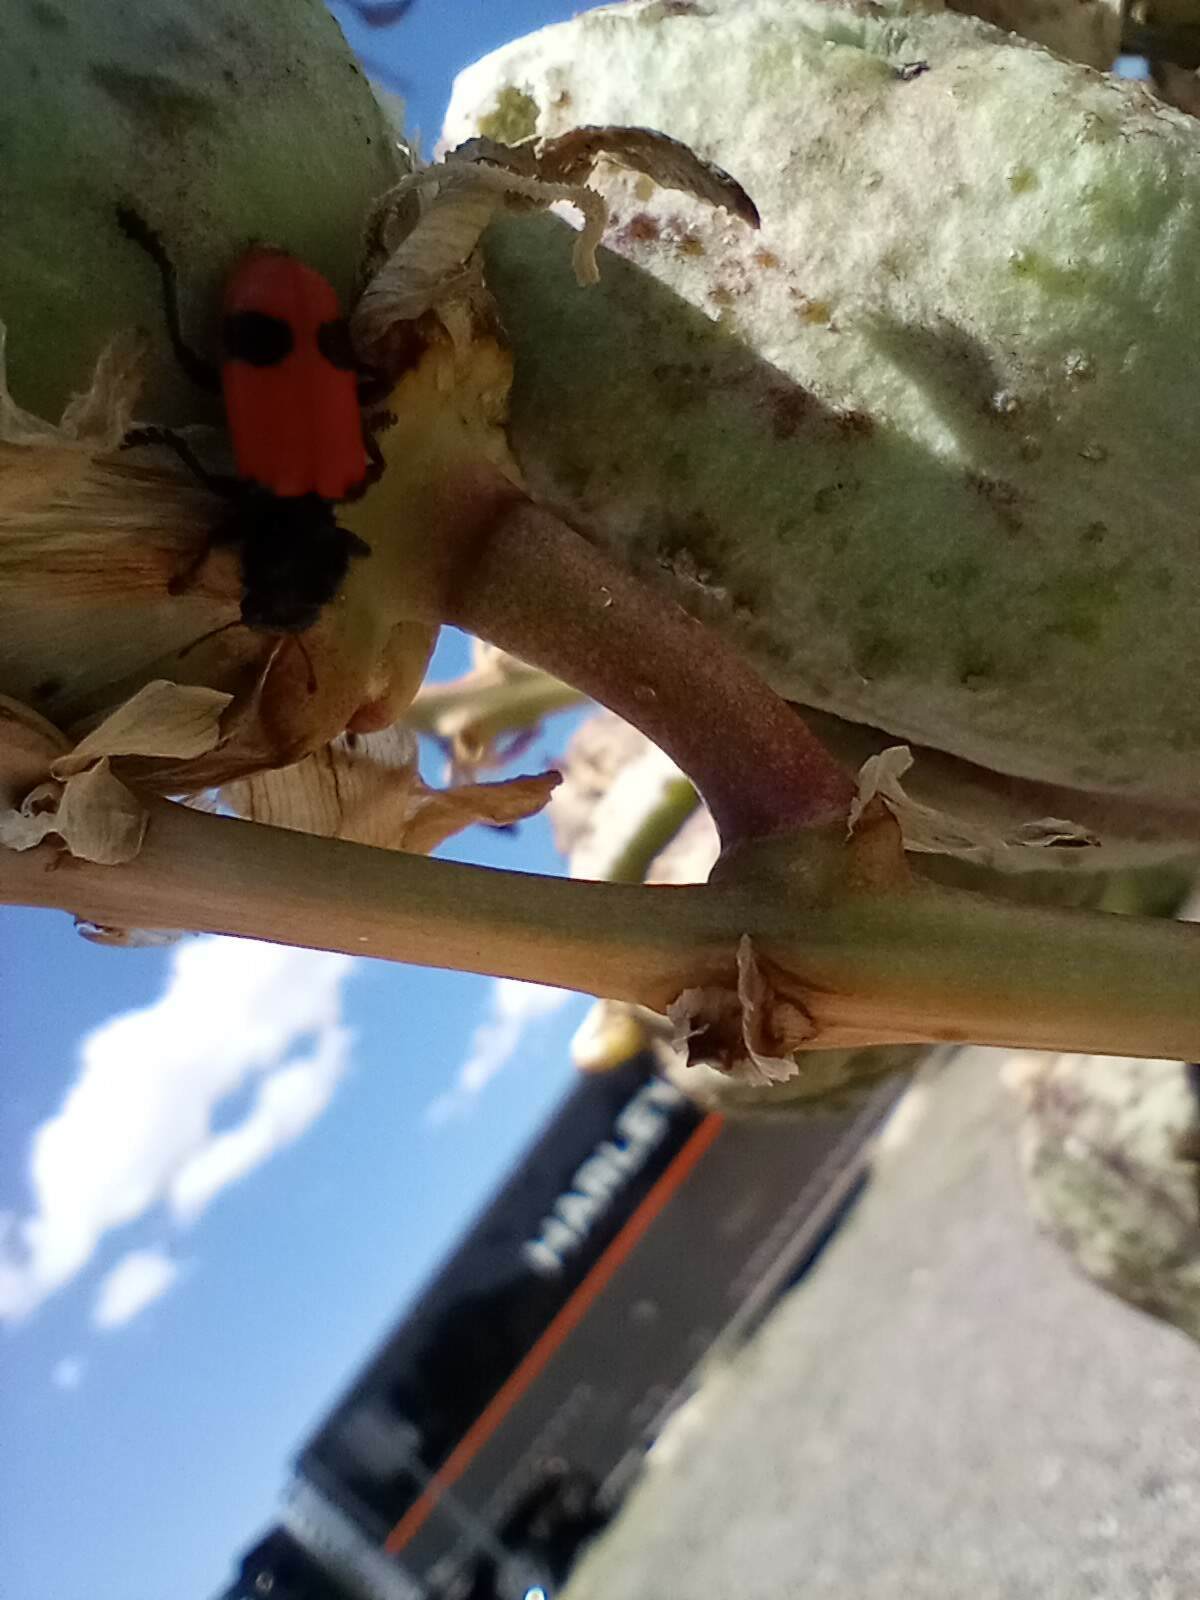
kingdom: Animalia
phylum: Arthropoda
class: Insecta
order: Coleoptera
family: Cleridae
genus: Enoclerus
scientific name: Enoclerus
